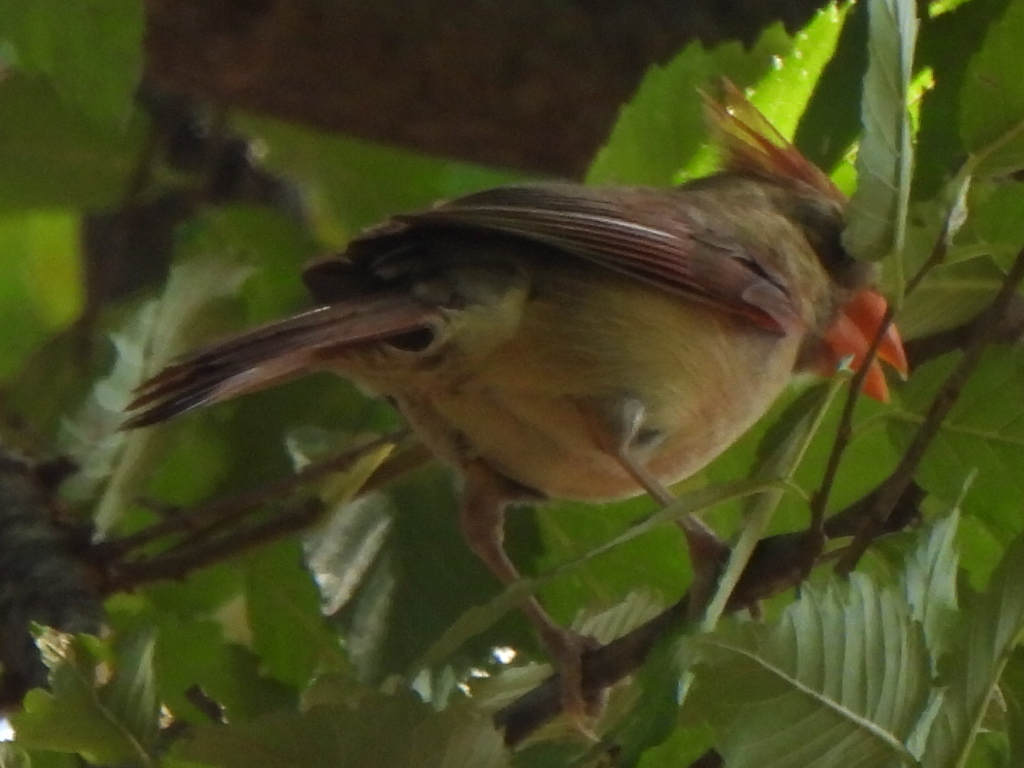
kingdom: Animalia
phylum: Chordata
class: Aves
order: Passeriformes
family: Cardinalidae
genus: Cardinalis
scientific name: Cardinalis cardinalis
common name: Northern cardinal
